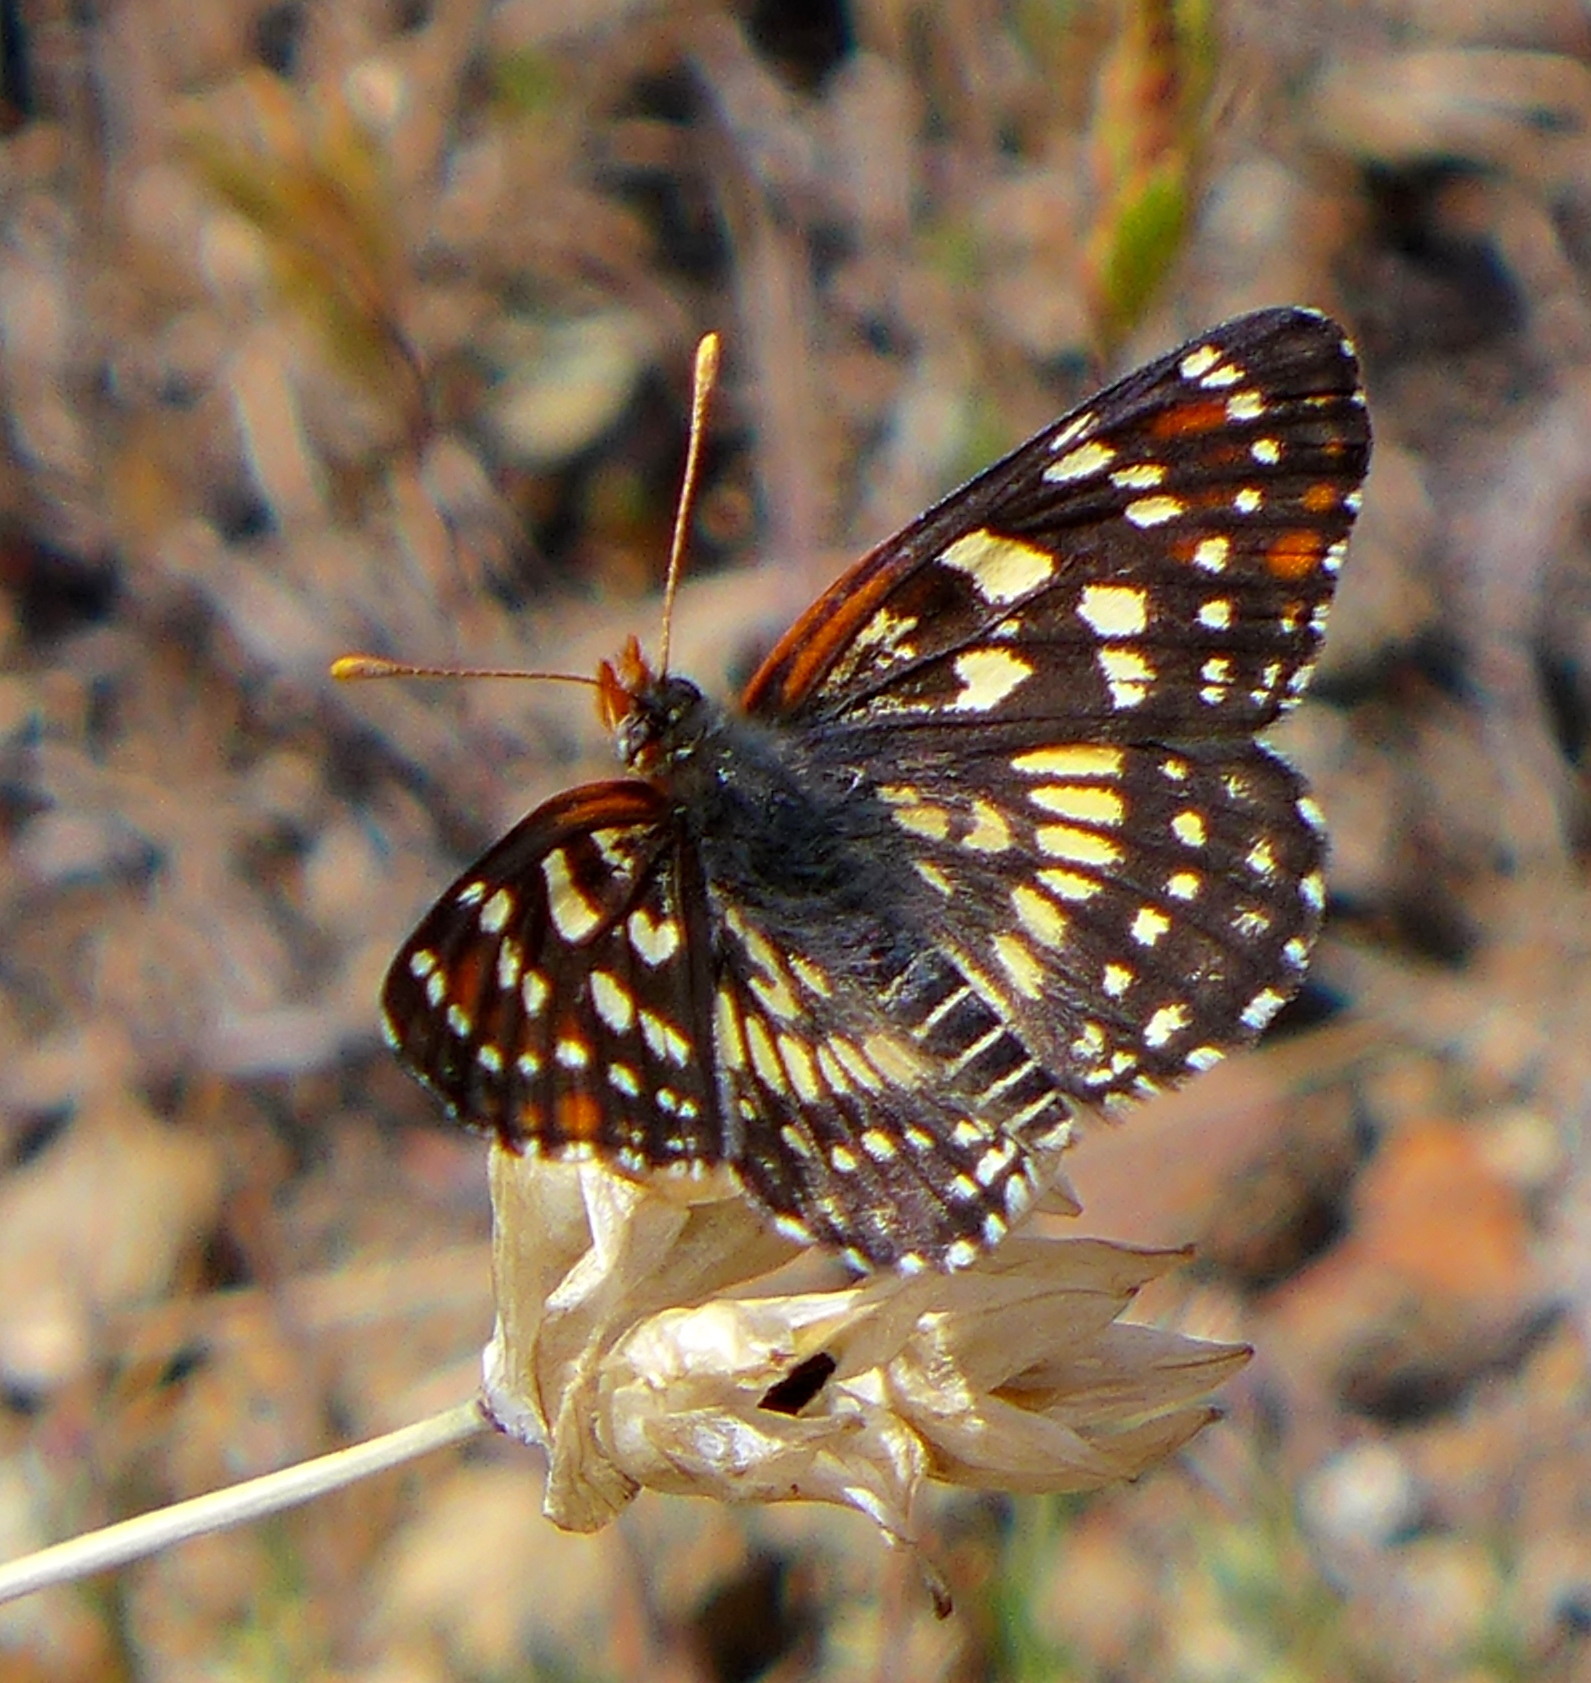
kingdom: Animalia
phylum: Arthropoda
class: Insecta
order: Lepidoptera
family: Nymphalidae
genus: Thessalia
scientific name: Thessalia leanira
